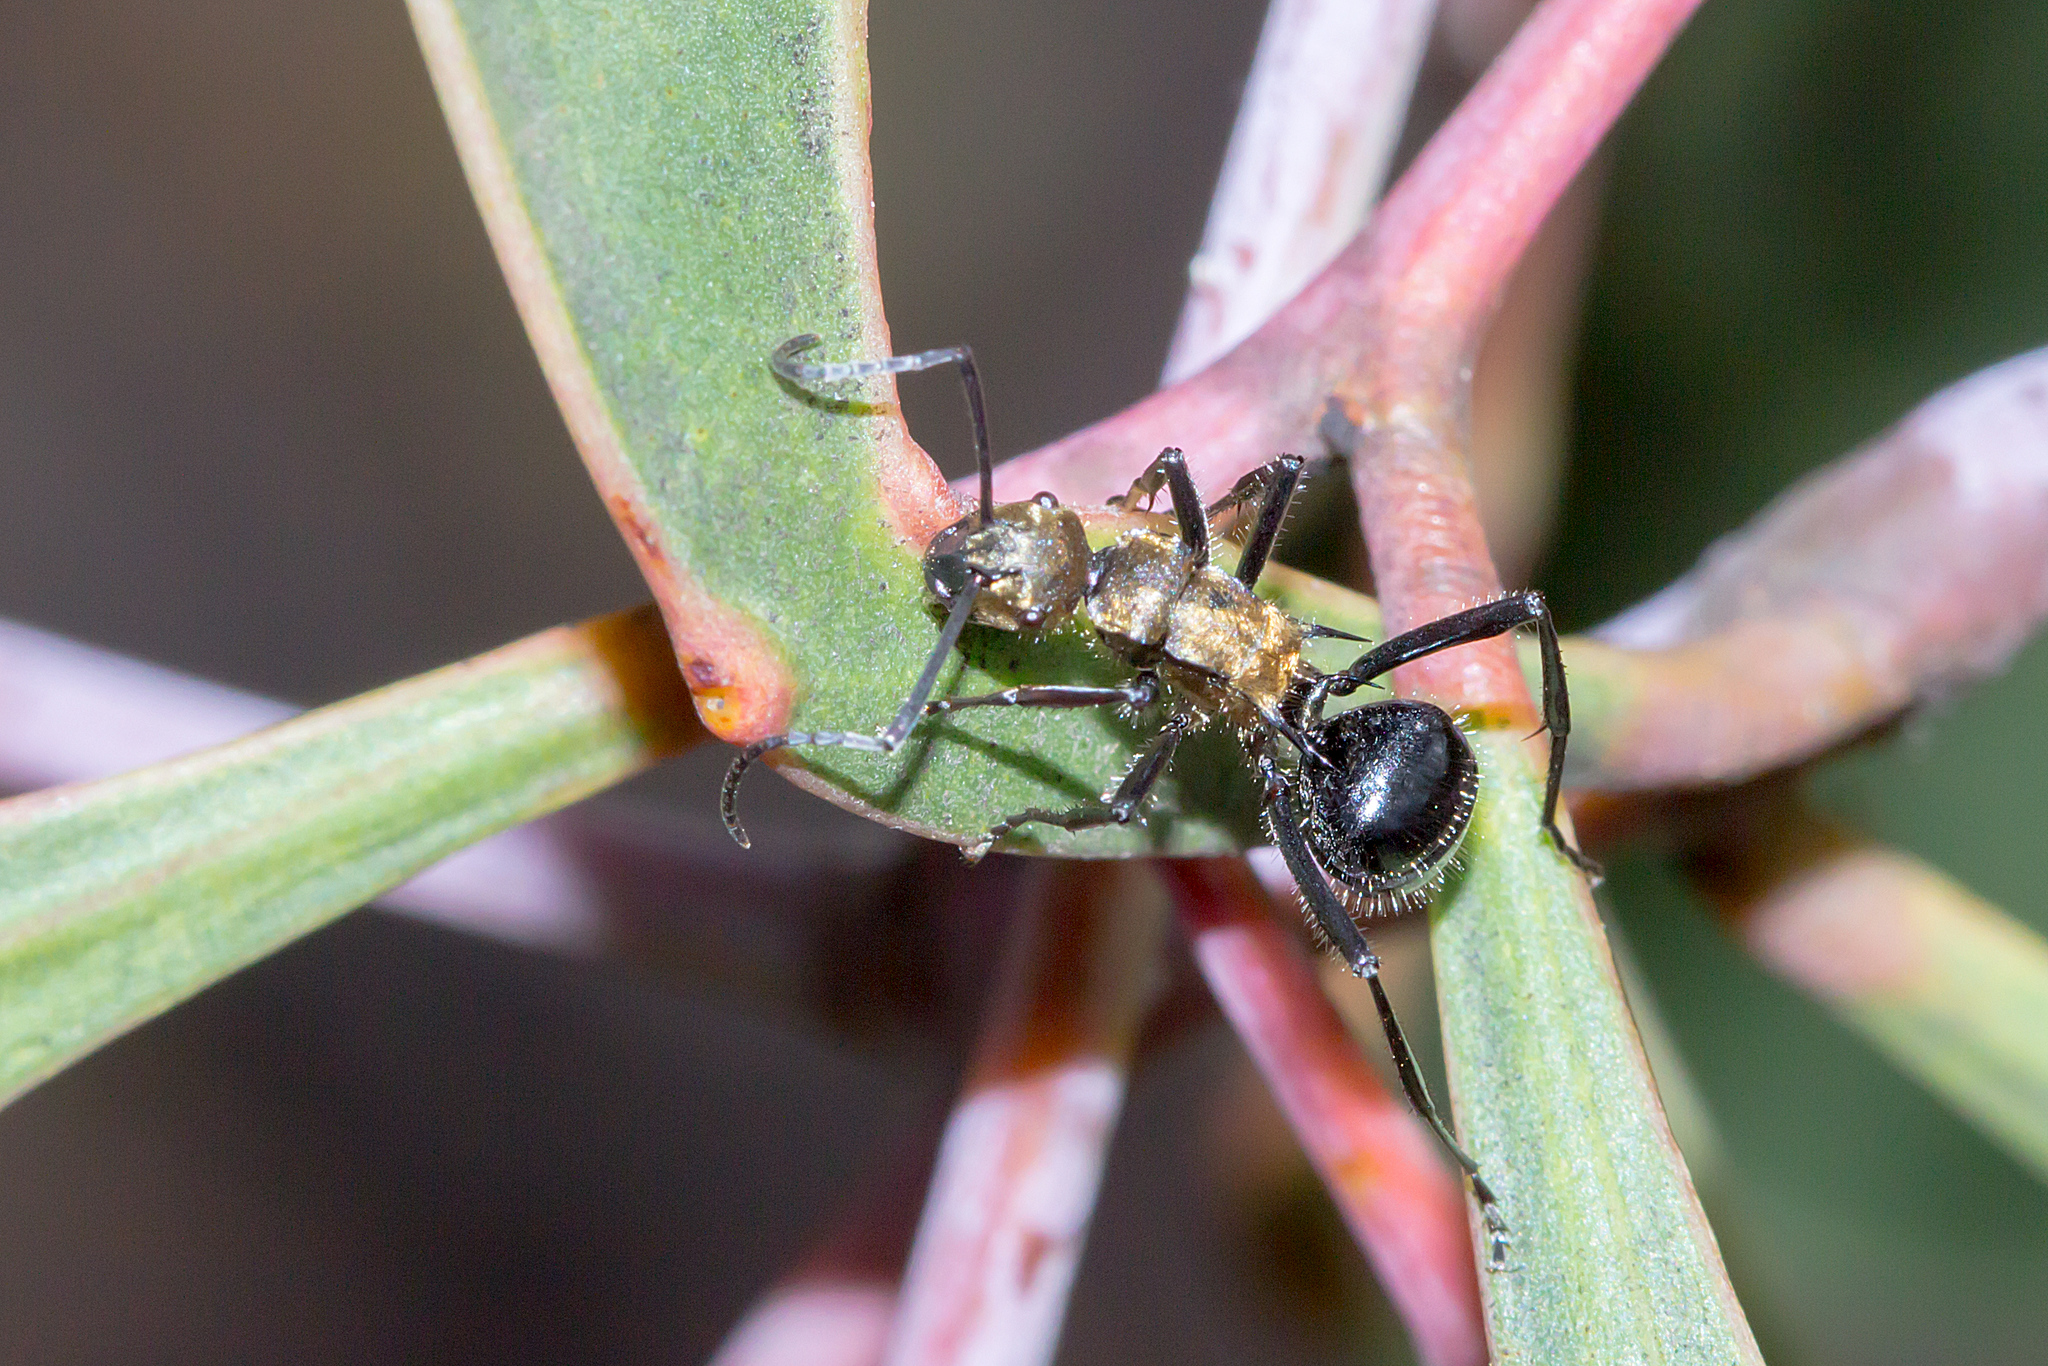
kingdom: Animalia
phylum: Arthropoda
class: Insecta
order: Hymenoptera
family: Formicidae
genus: Polyrhachis
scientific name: Polyrhachis semiaurata
